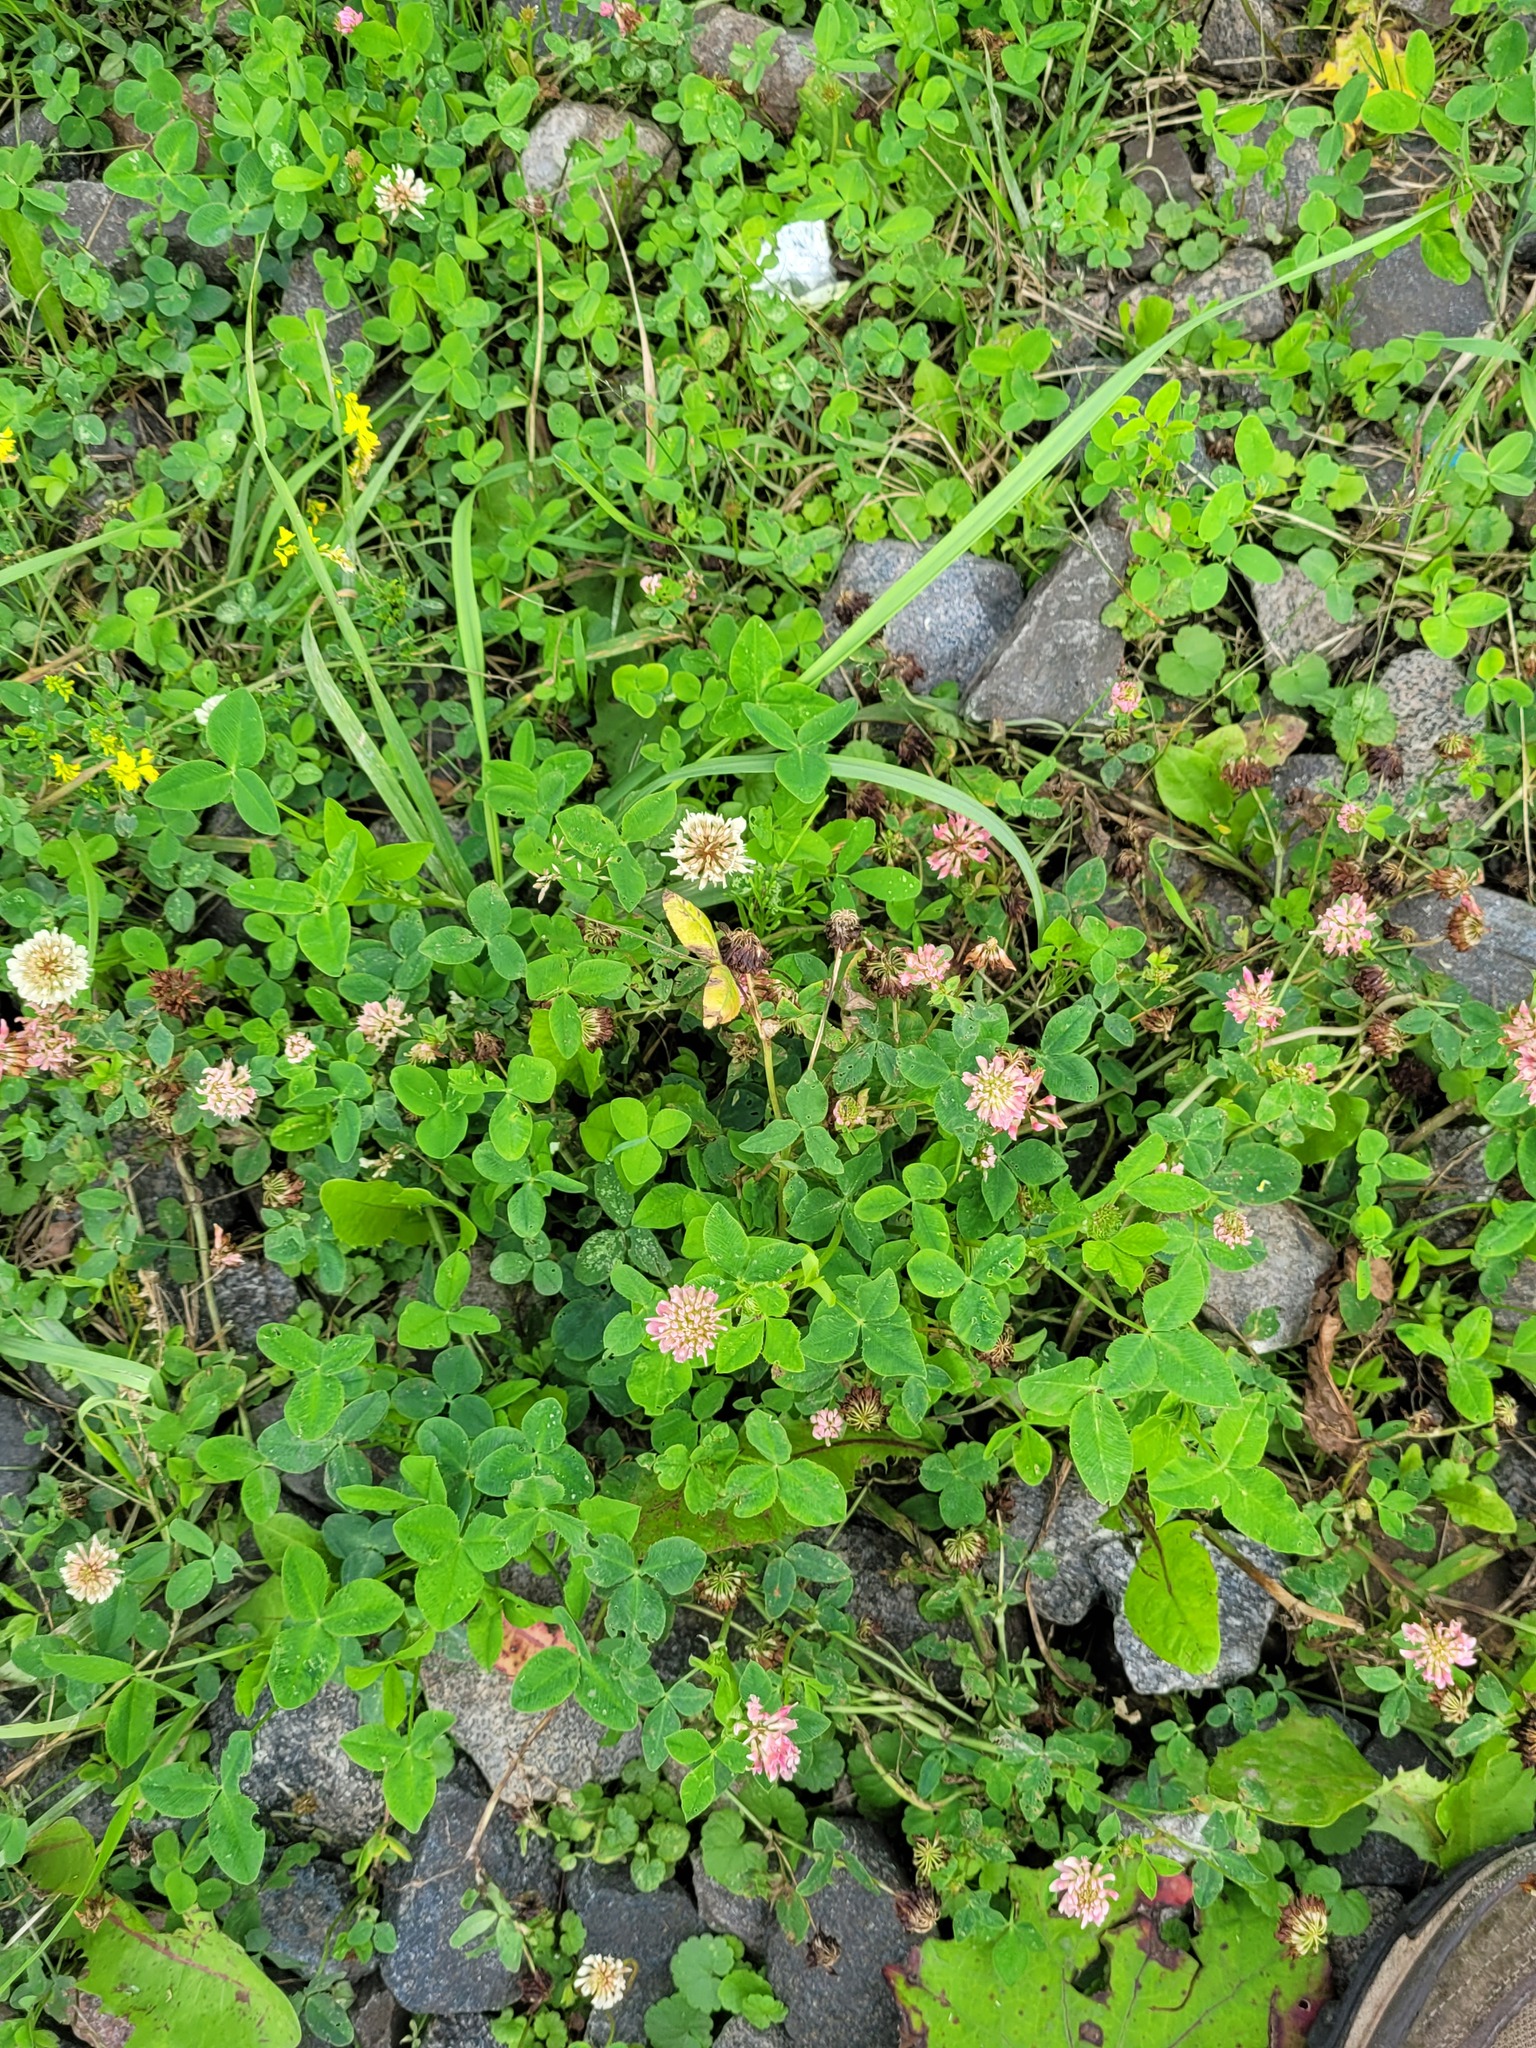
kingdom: Plantae
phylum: Tracheophyta
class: Magnoliopsida
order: Fabales
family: Fabaceae
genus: Trifolium
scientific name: Trifolium hybridum
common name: Alsike clover
